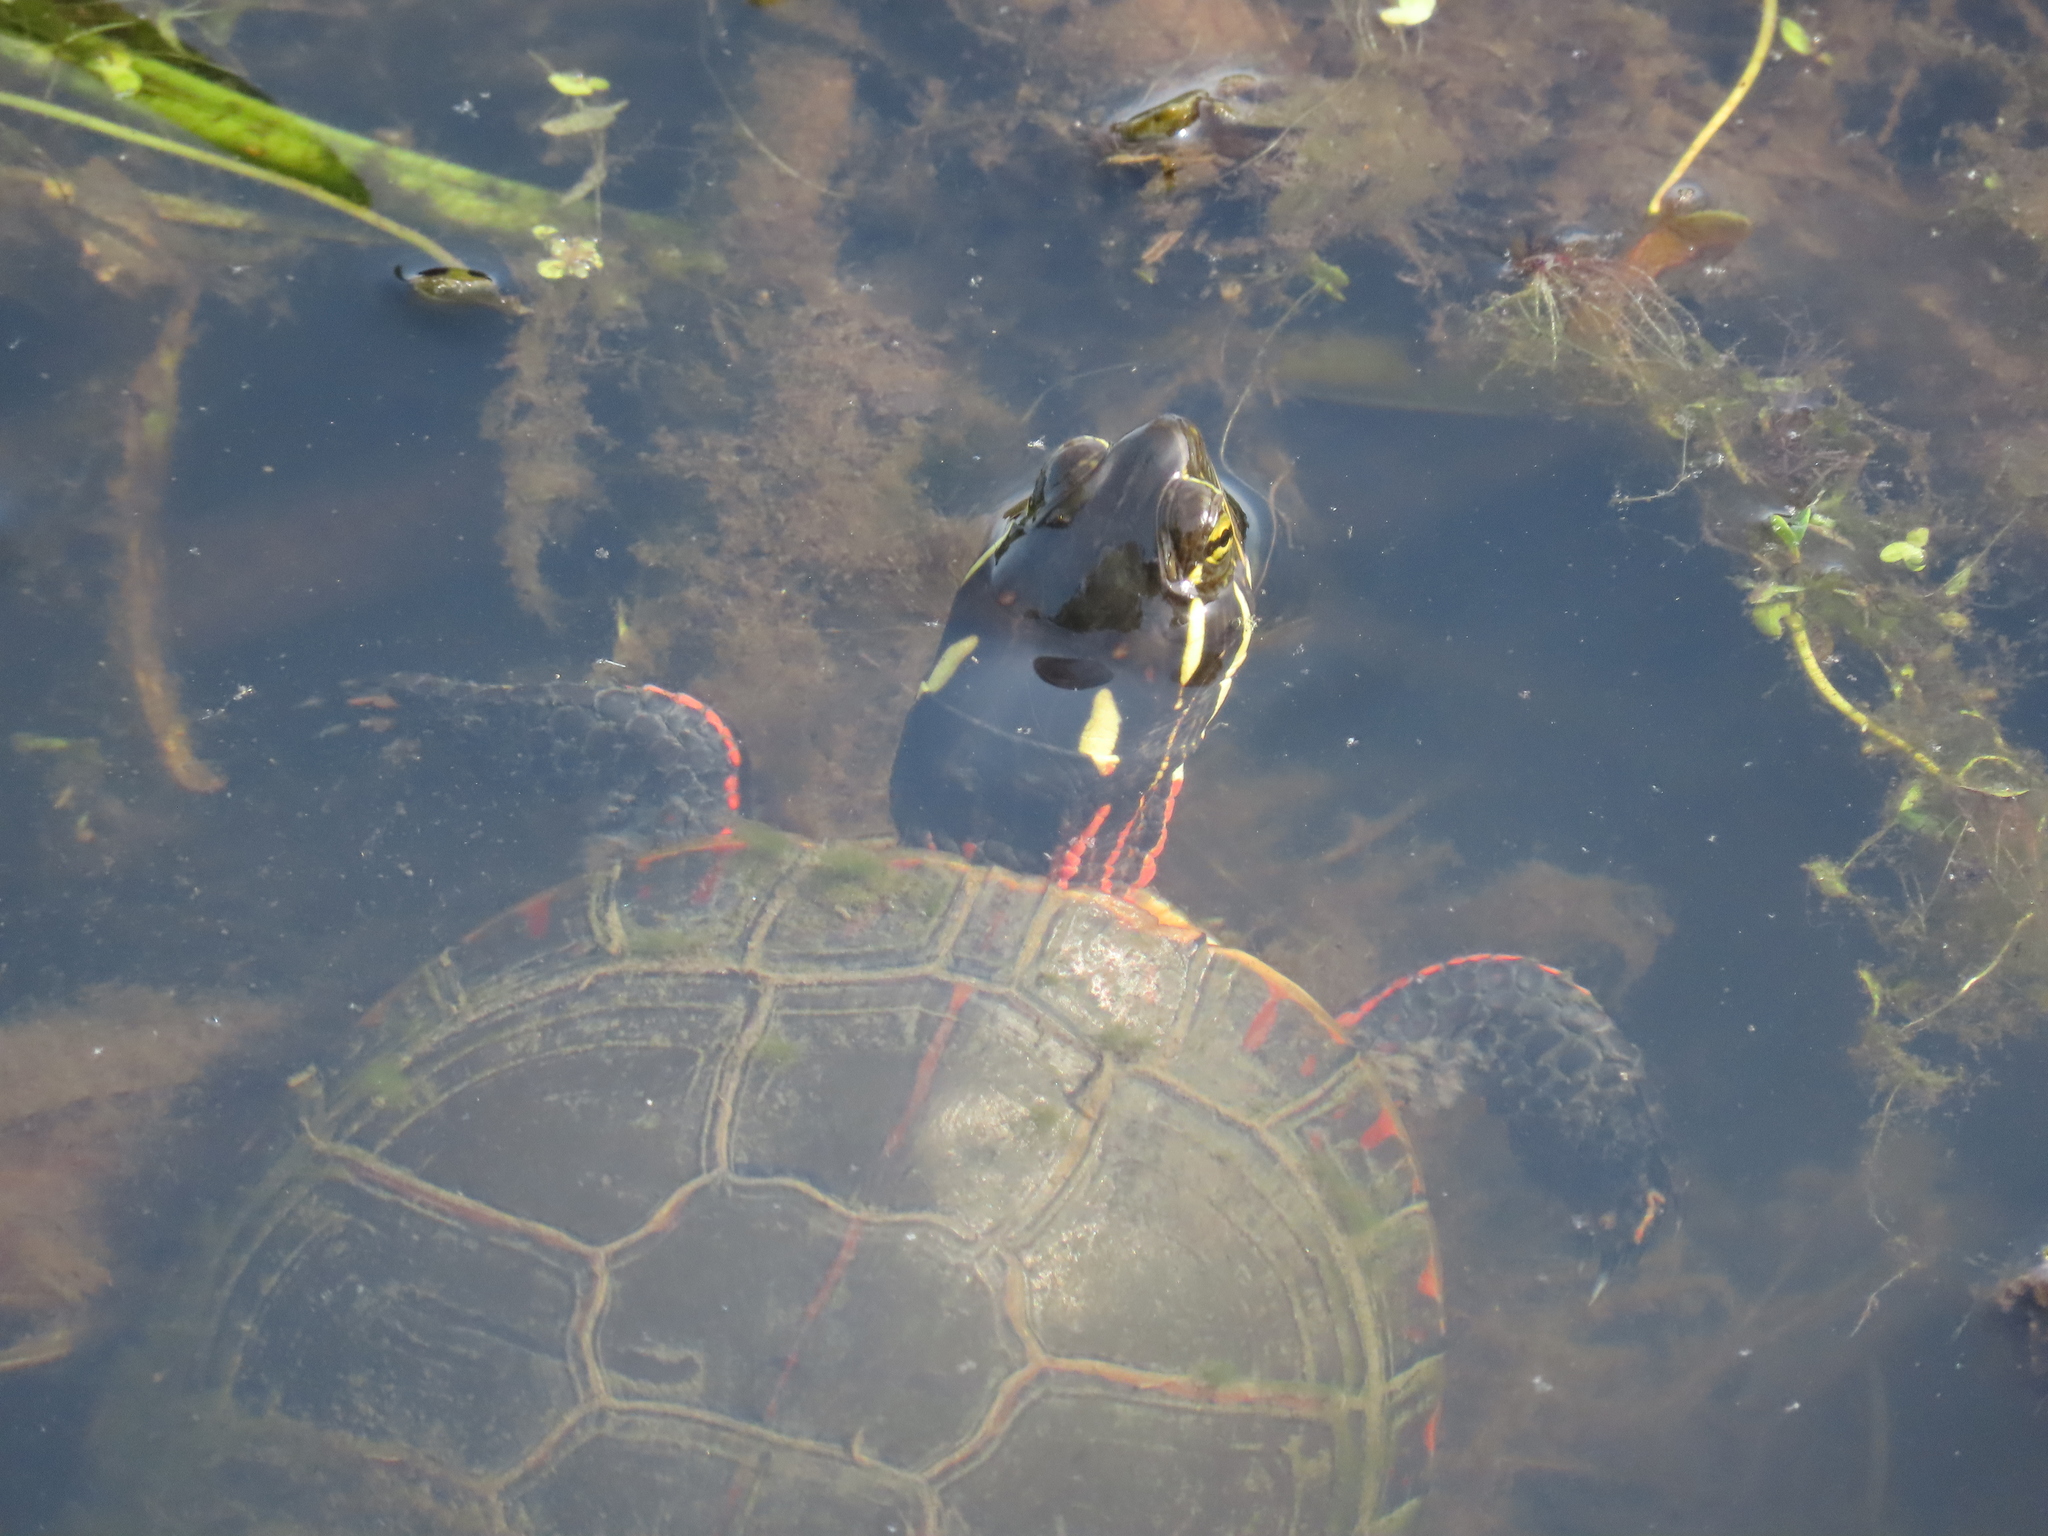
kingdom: Animalia
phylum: Chordata
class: Testudines
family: Emydidae
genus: Chrysemys
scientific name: Chrysemys picta
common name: Painted turtle
